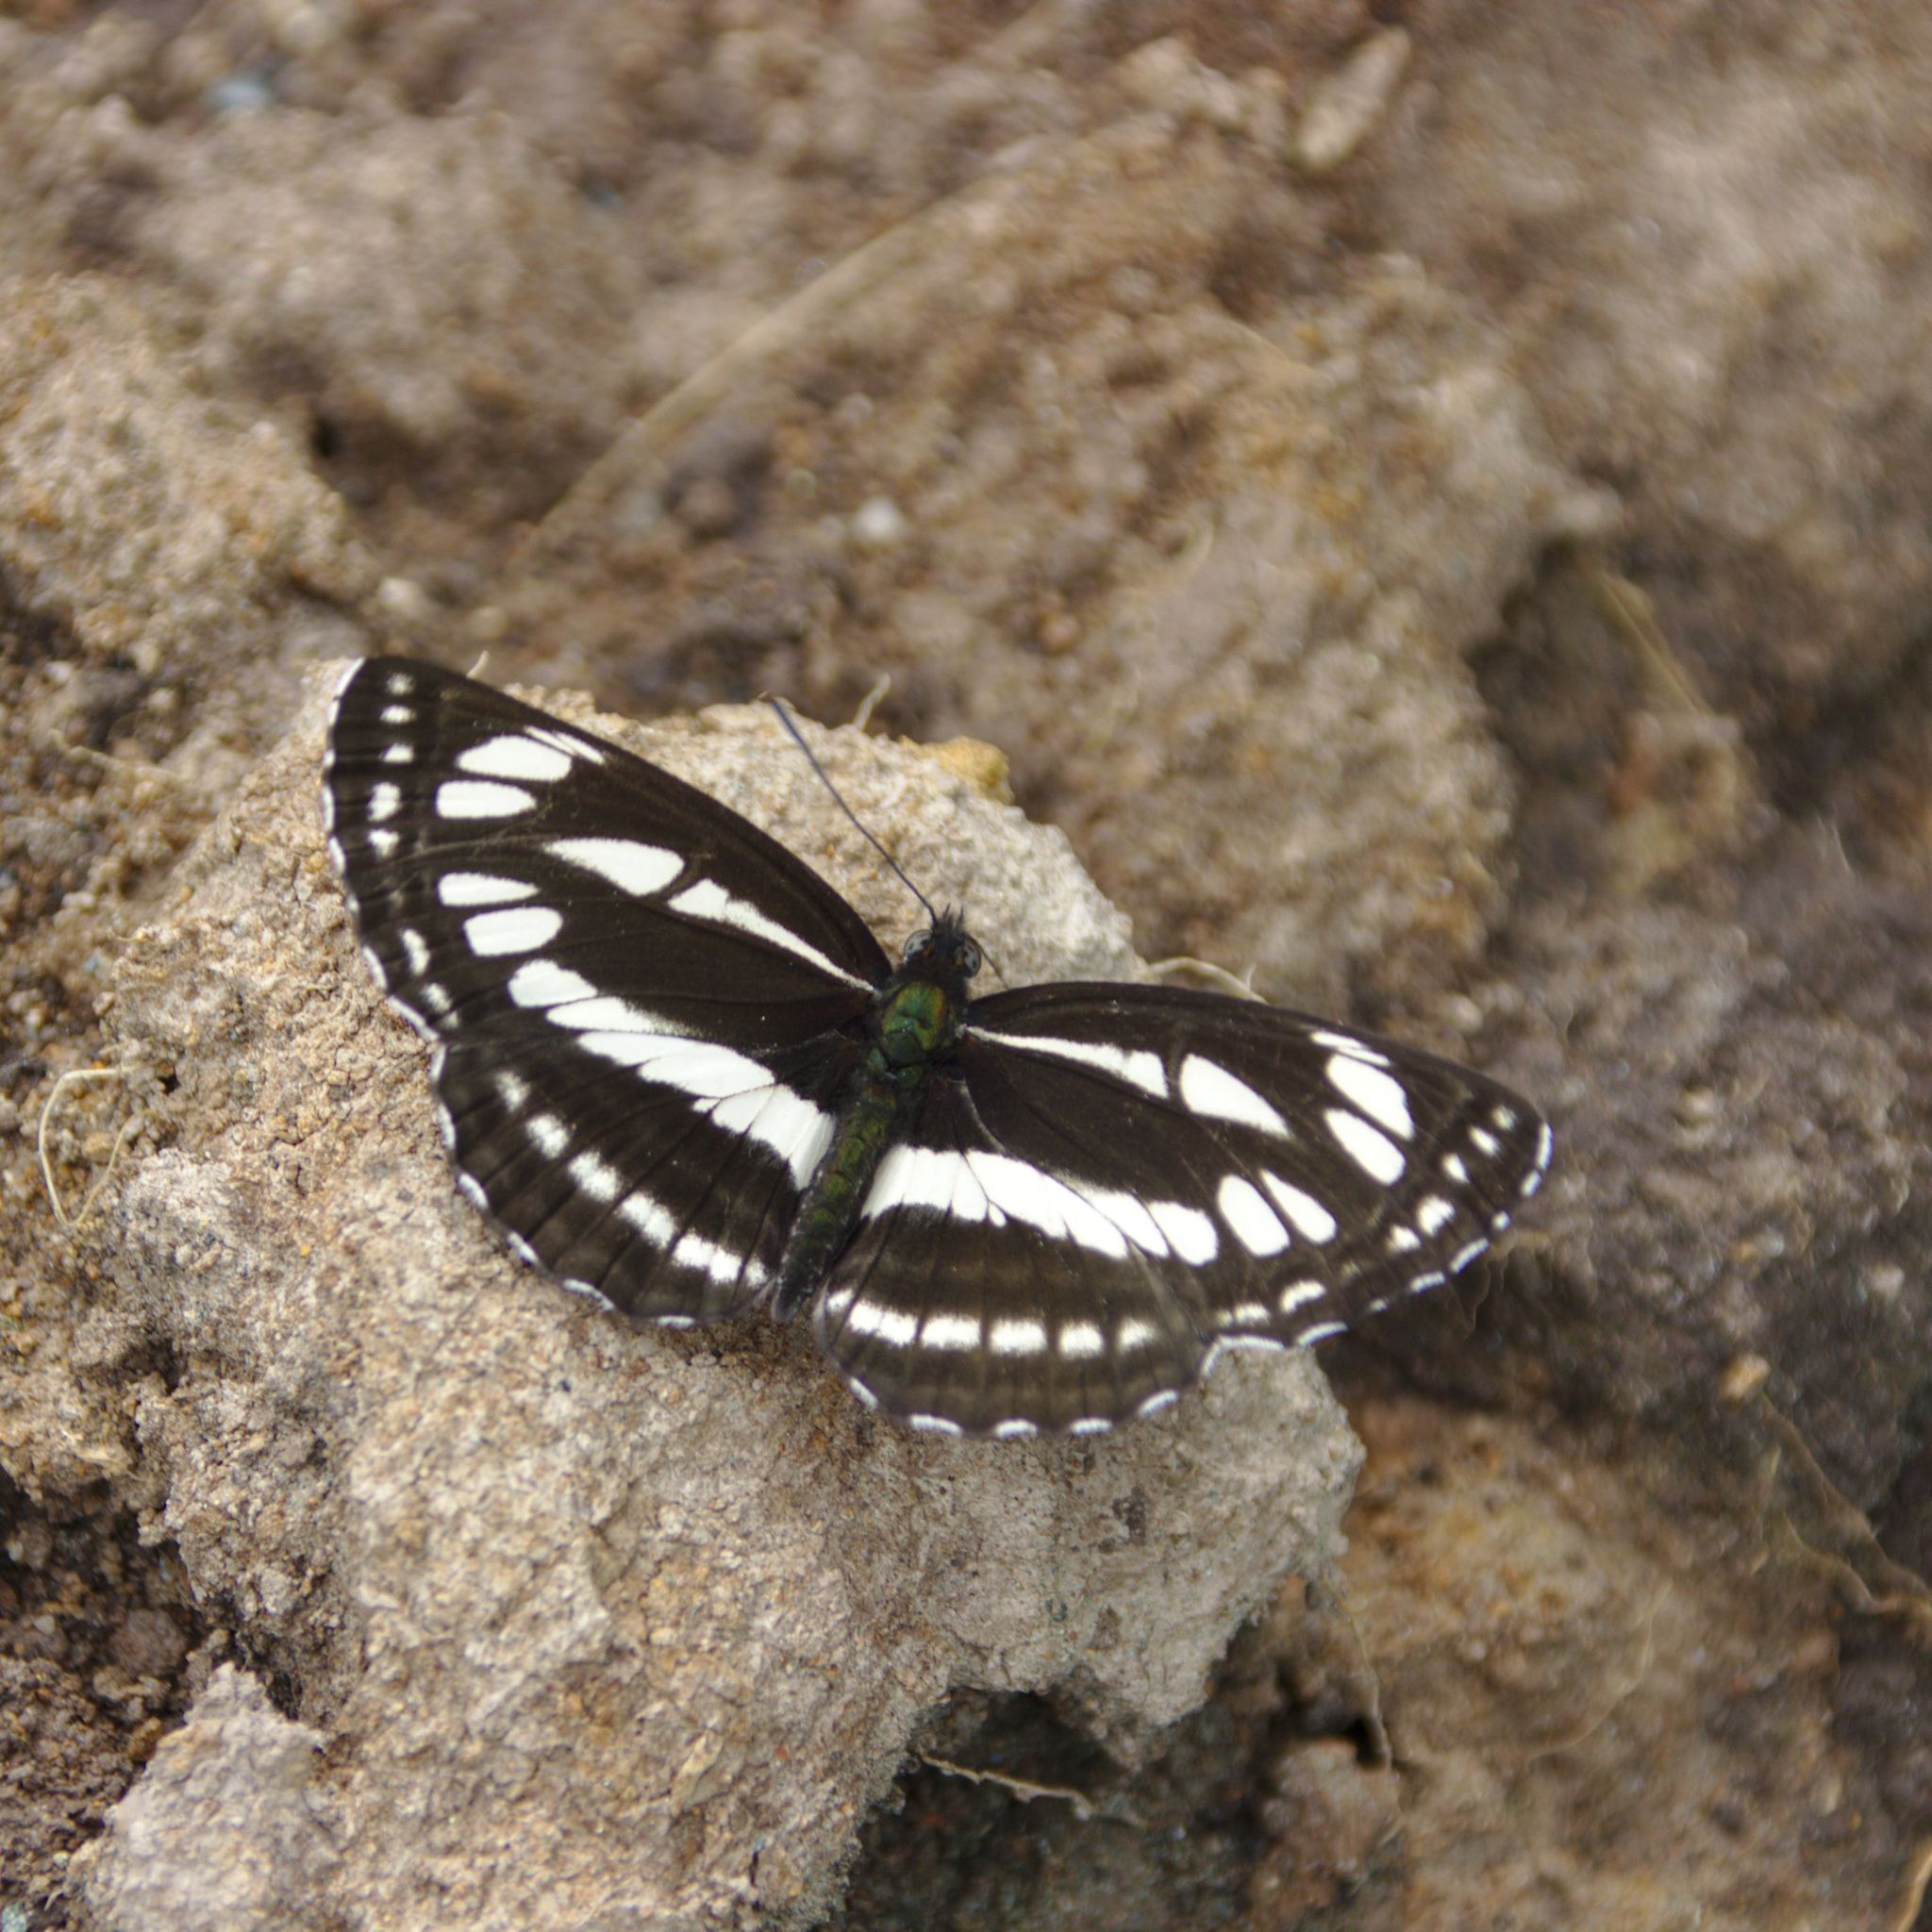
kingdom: Animalia
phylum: Arthropoda
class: Insecta
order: Lepidoptera
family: Nymphalidae
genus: Neptis
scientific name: Neptis sappho
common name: Common glider
